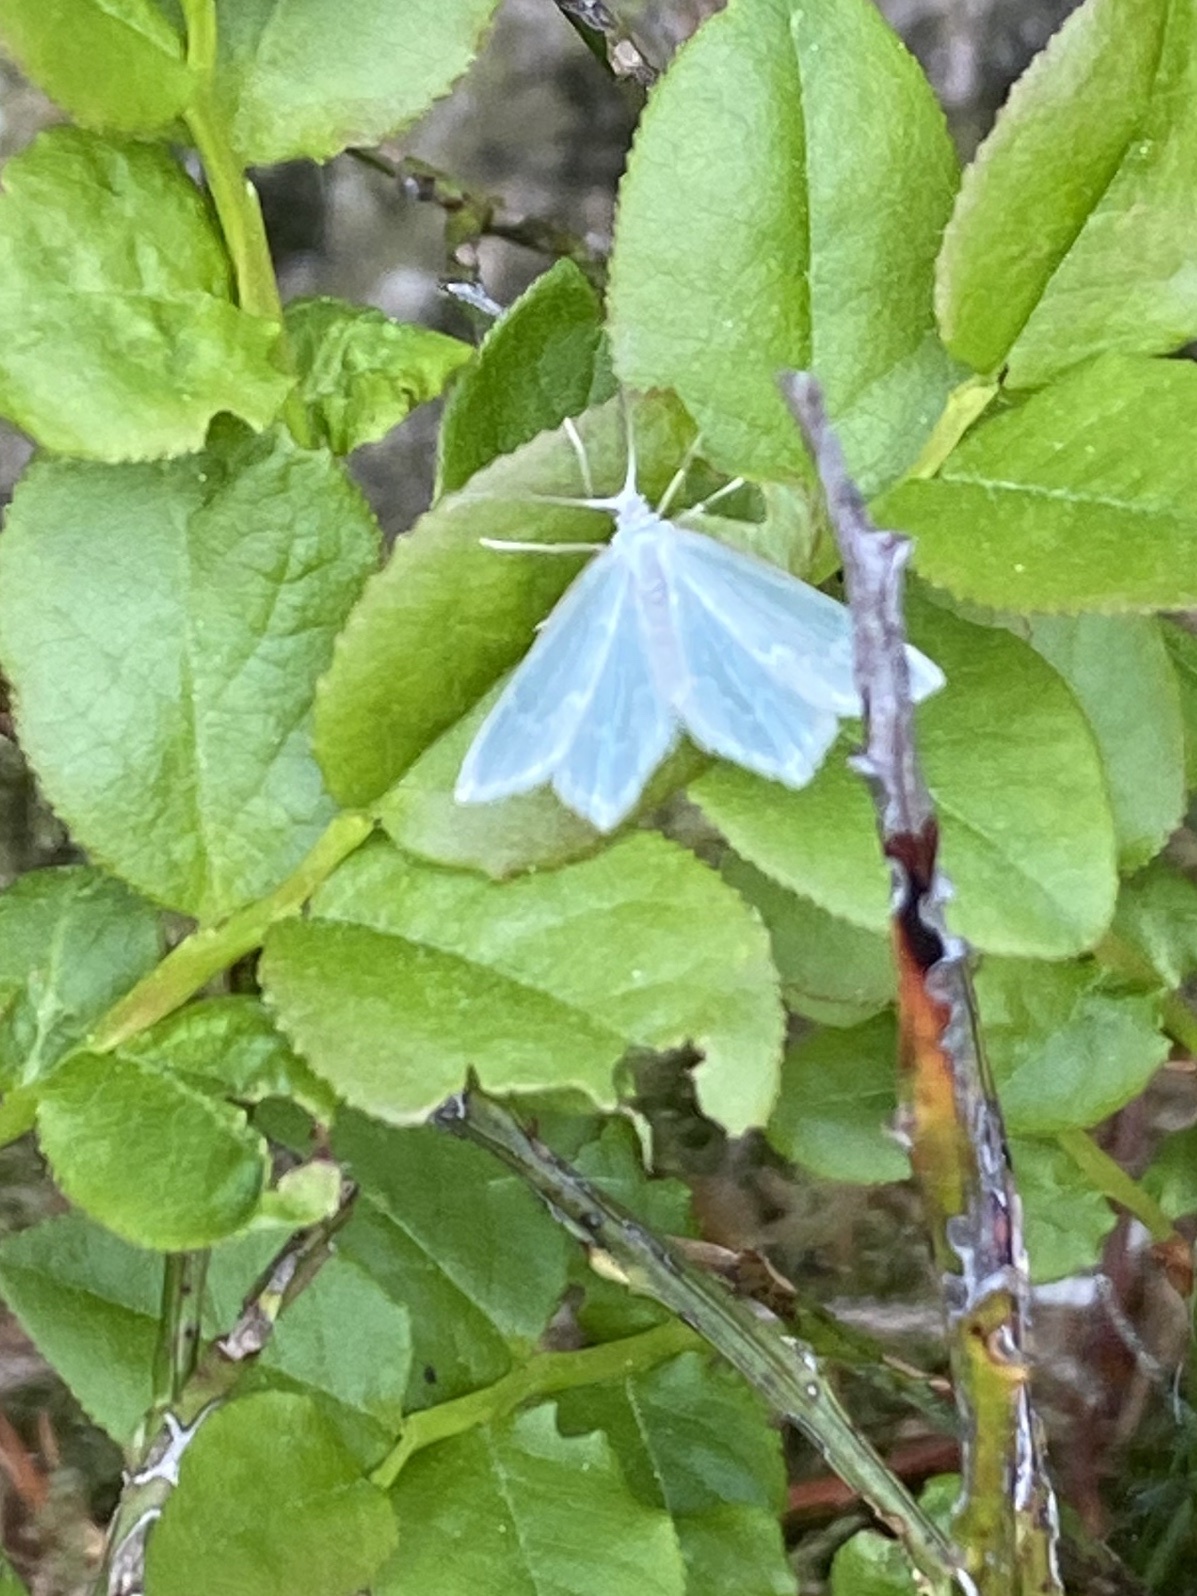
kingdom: Animalia
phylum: Arthropoda
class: Insecta
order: Lepidoptera
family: Geometridae
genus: Jodis
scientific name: Jodis putata
